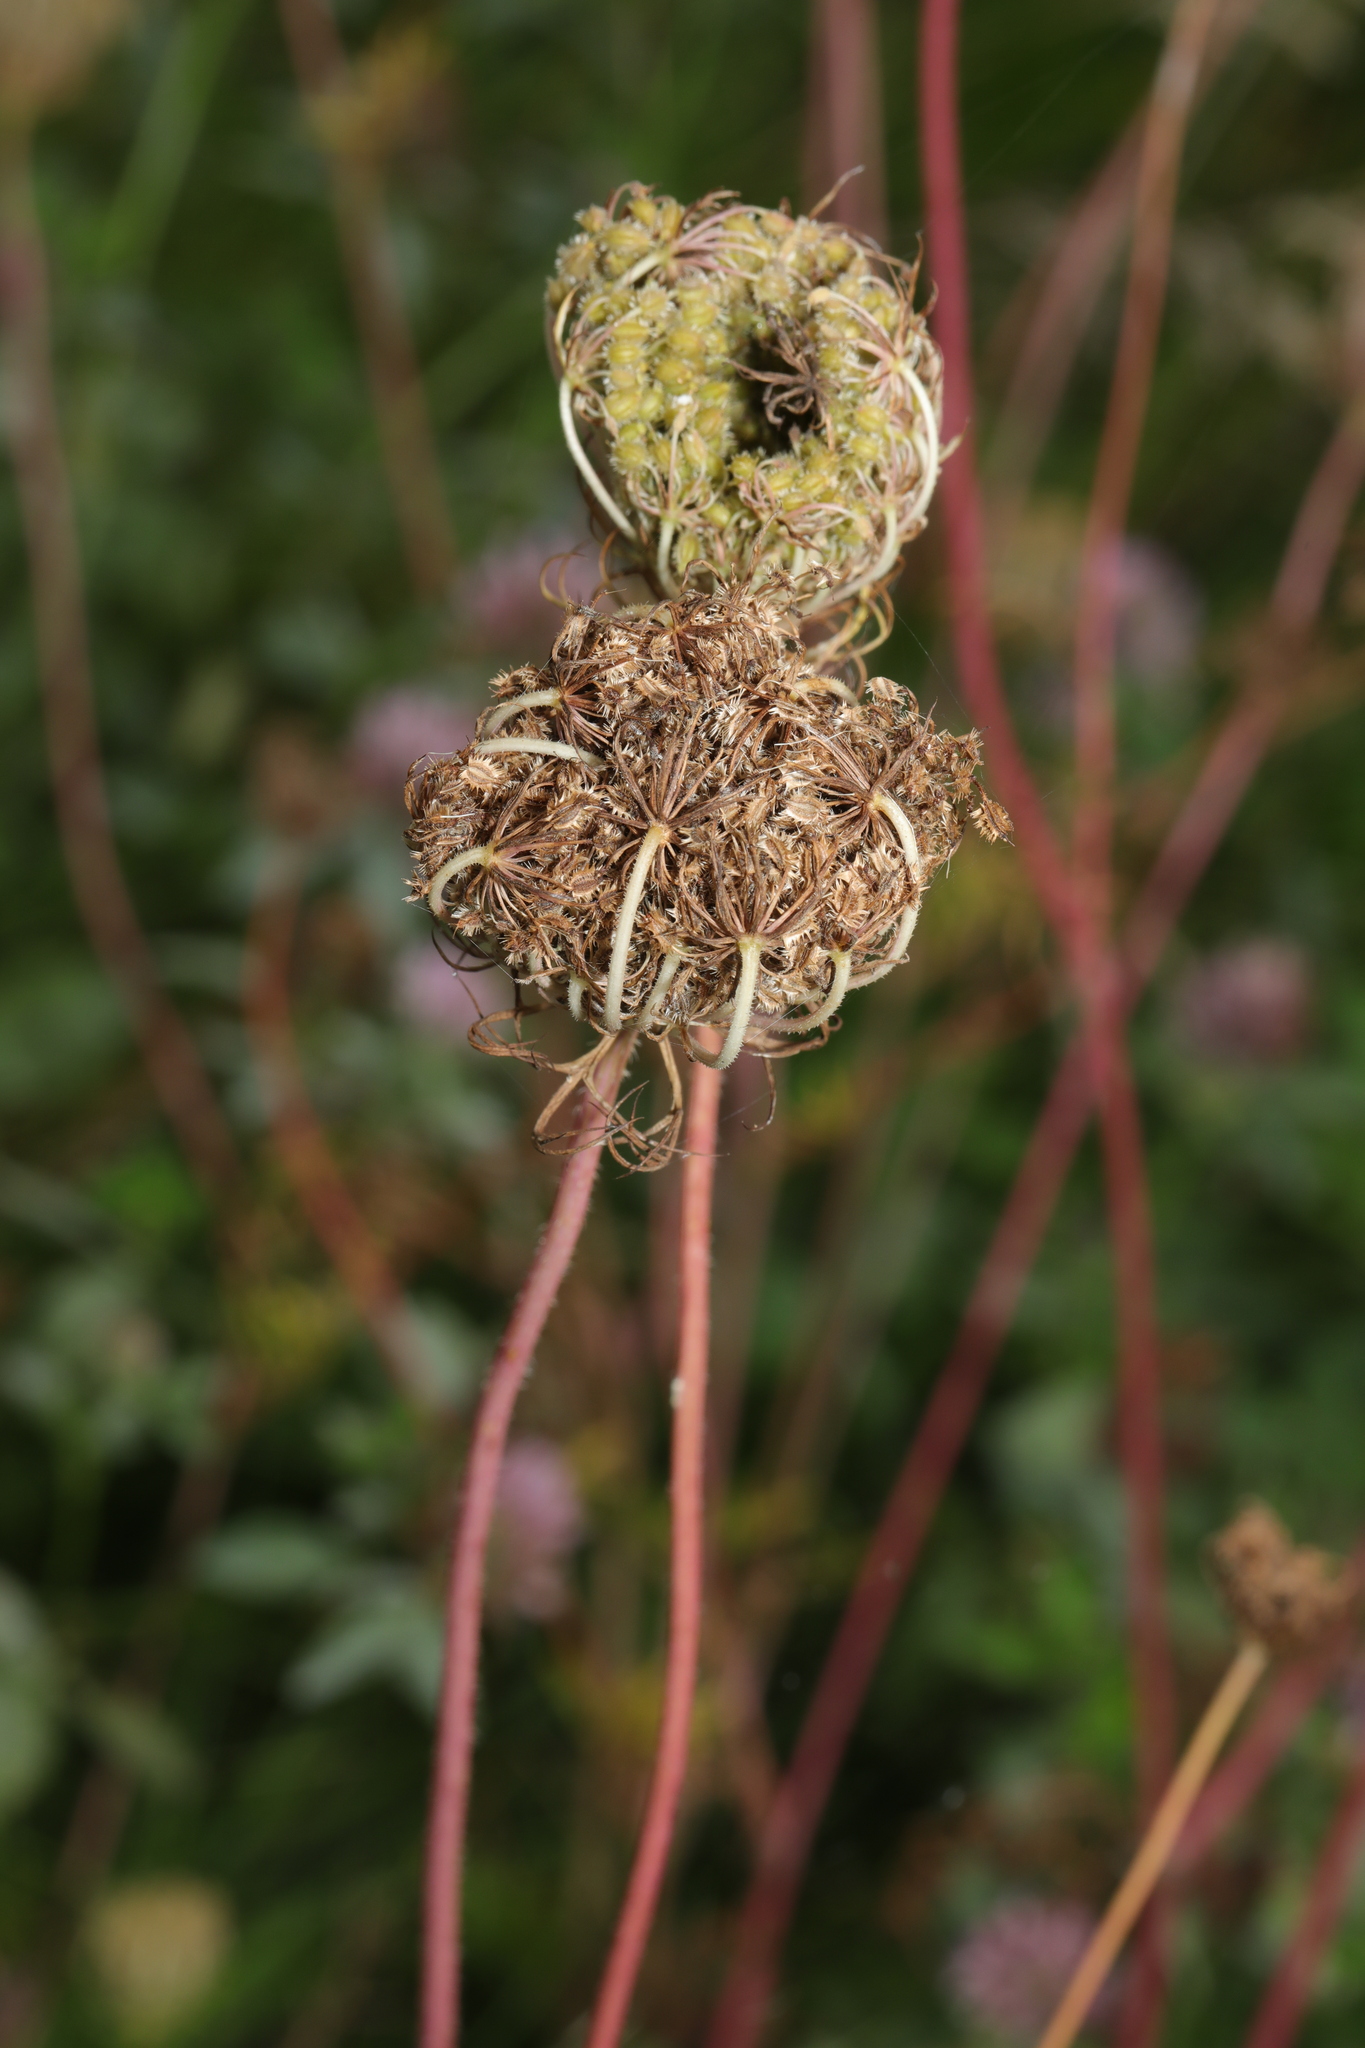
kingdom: Plantae
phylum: Tracheophyta
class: Magnoliopsida
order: Apiales
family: Apiaceae
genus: Daucus
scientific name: Daucus carota
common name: Wild carrot
